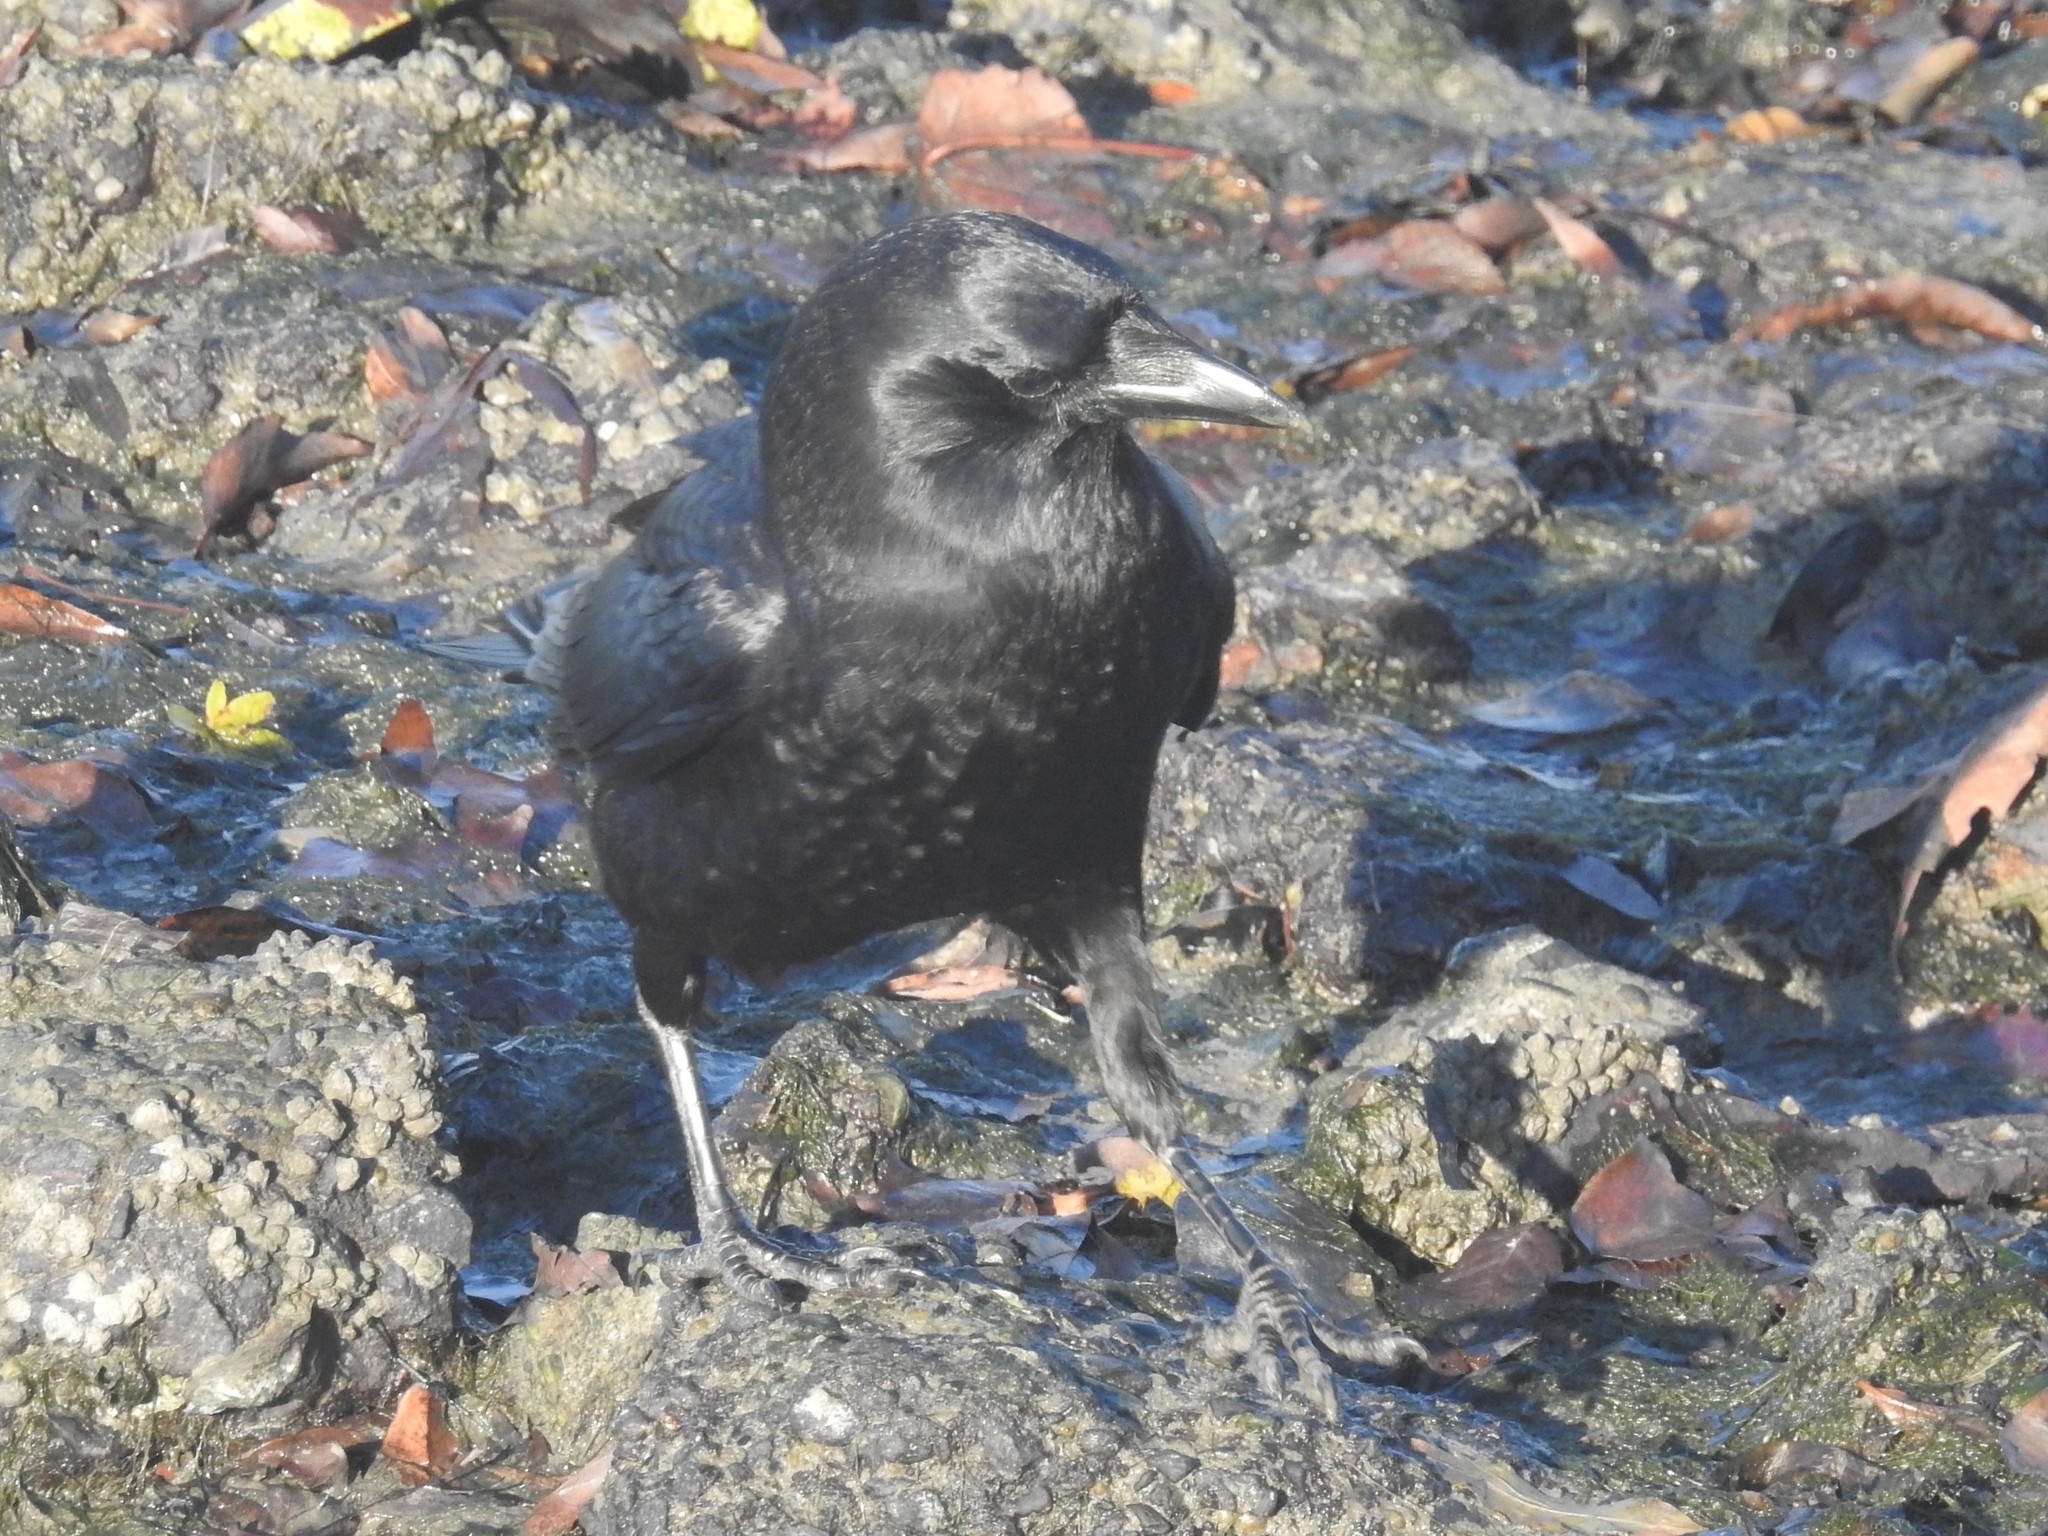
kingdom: Animalia
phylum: Chordata
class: Aves
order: Passeriformes
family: Corvidae
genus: Corvus
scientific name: Corvus corax
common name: Common raven
